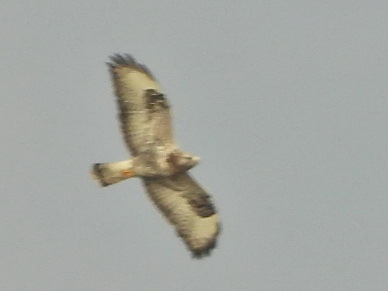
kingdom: Animalia
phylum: Chordata
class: Aves
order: Accipitriformes
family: Accipitridae
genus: Buteo
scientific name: Buteo lagopus
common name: Rough-legged buzzard
